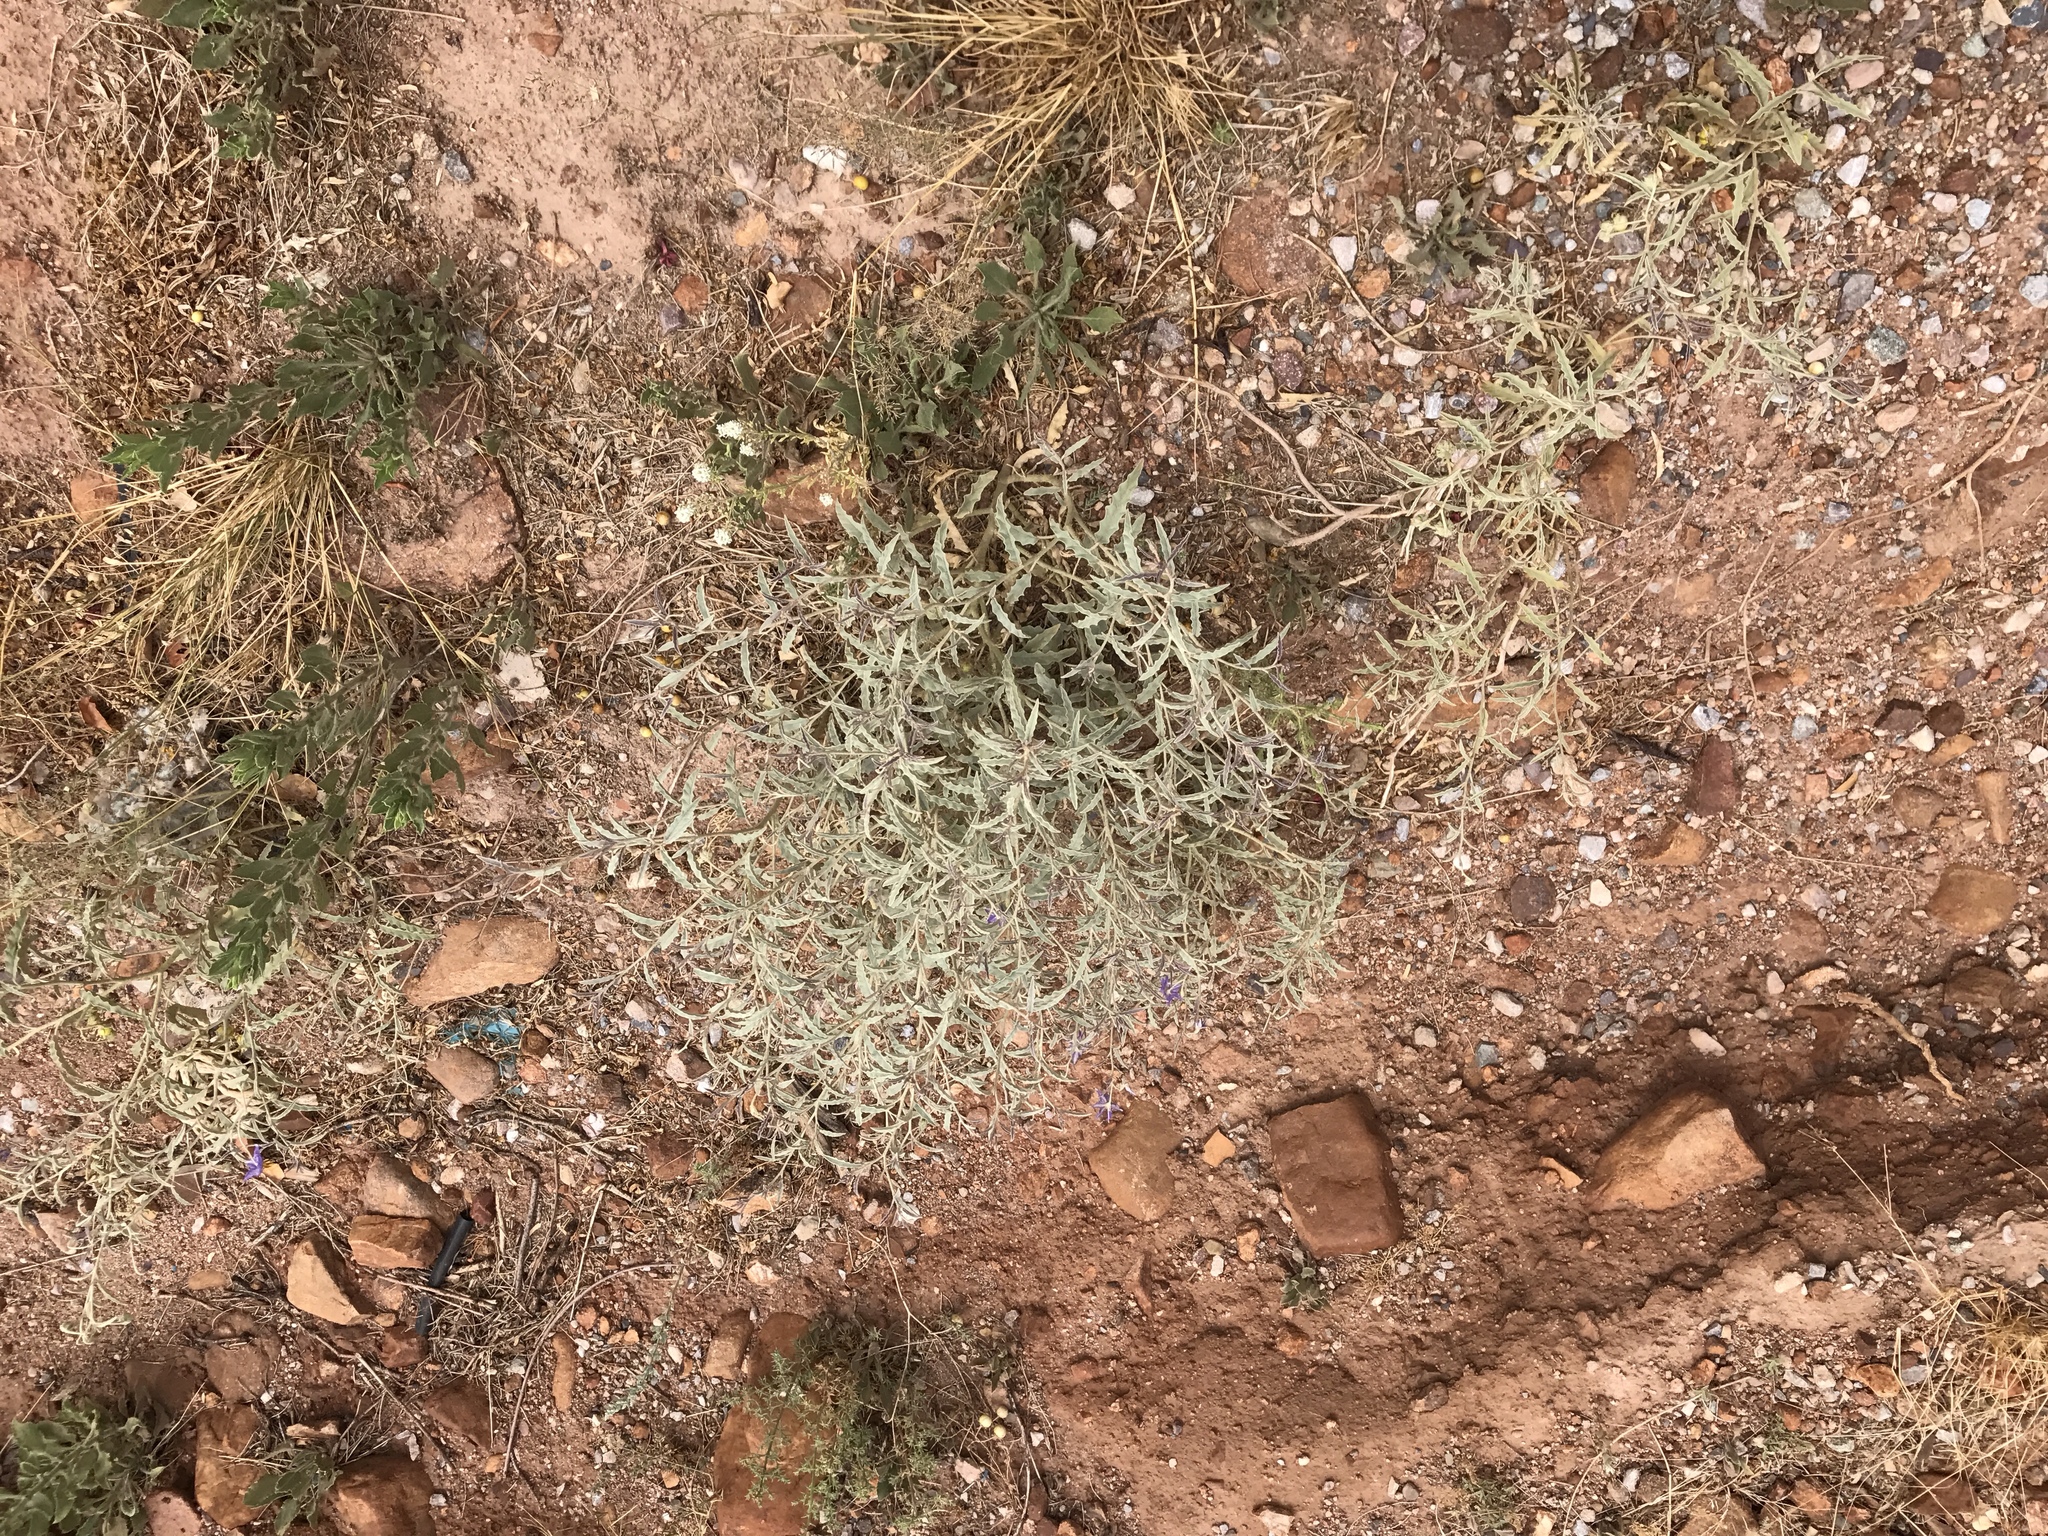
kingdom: Plantae
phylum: Tracheophyta
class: Magnoliopsida
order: Solanales
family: Solanaceae
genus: Solanum
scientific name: Solanum elaeagnifolium
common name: Silverleaf nightshade
